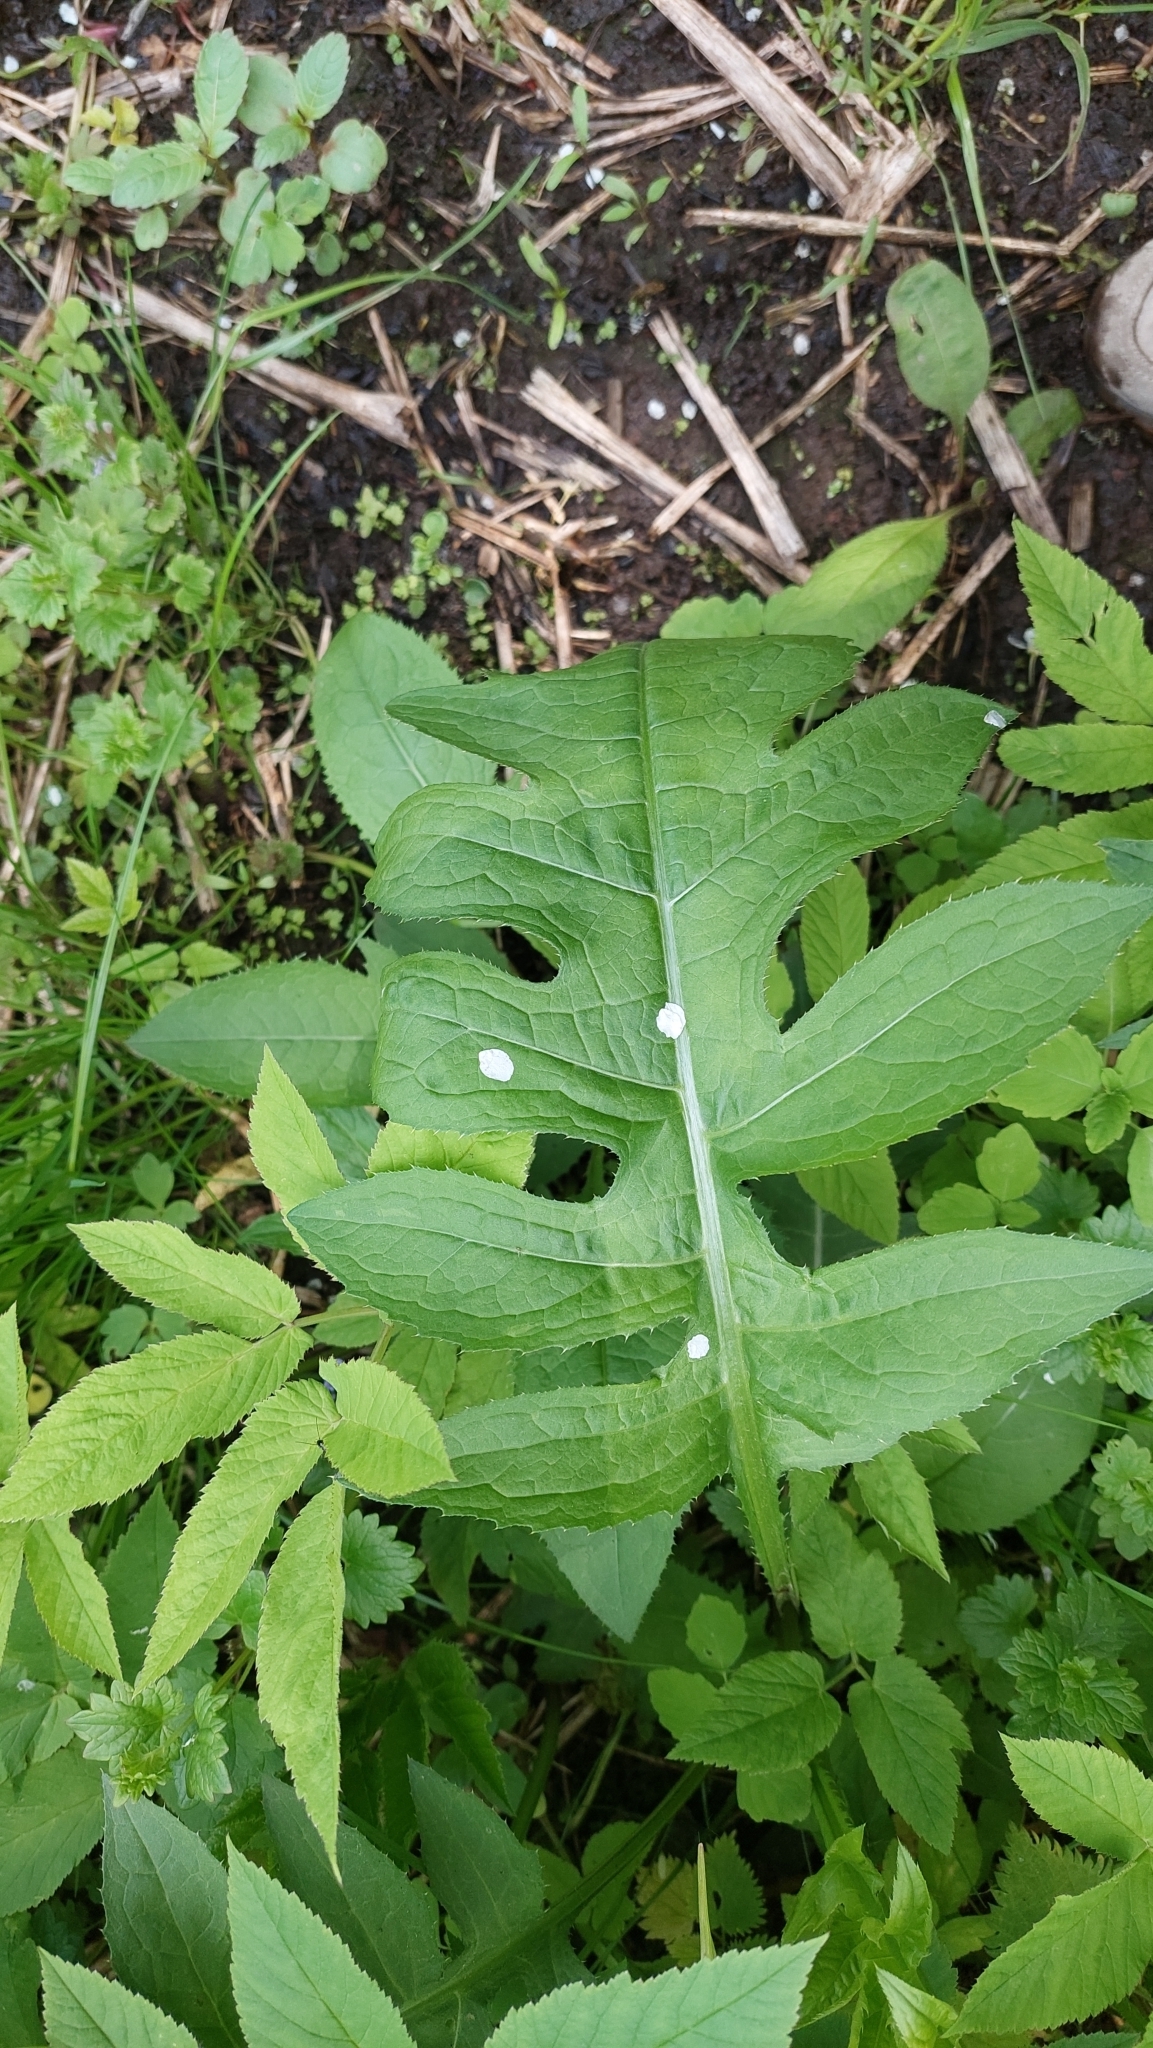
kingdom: Plantae
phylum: Tracheophyta
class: Magnoliopsida
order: Asterales
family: Asteraceae
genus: Cirsium
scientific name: Cirsium oleraceum
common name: Cabbage thistle
